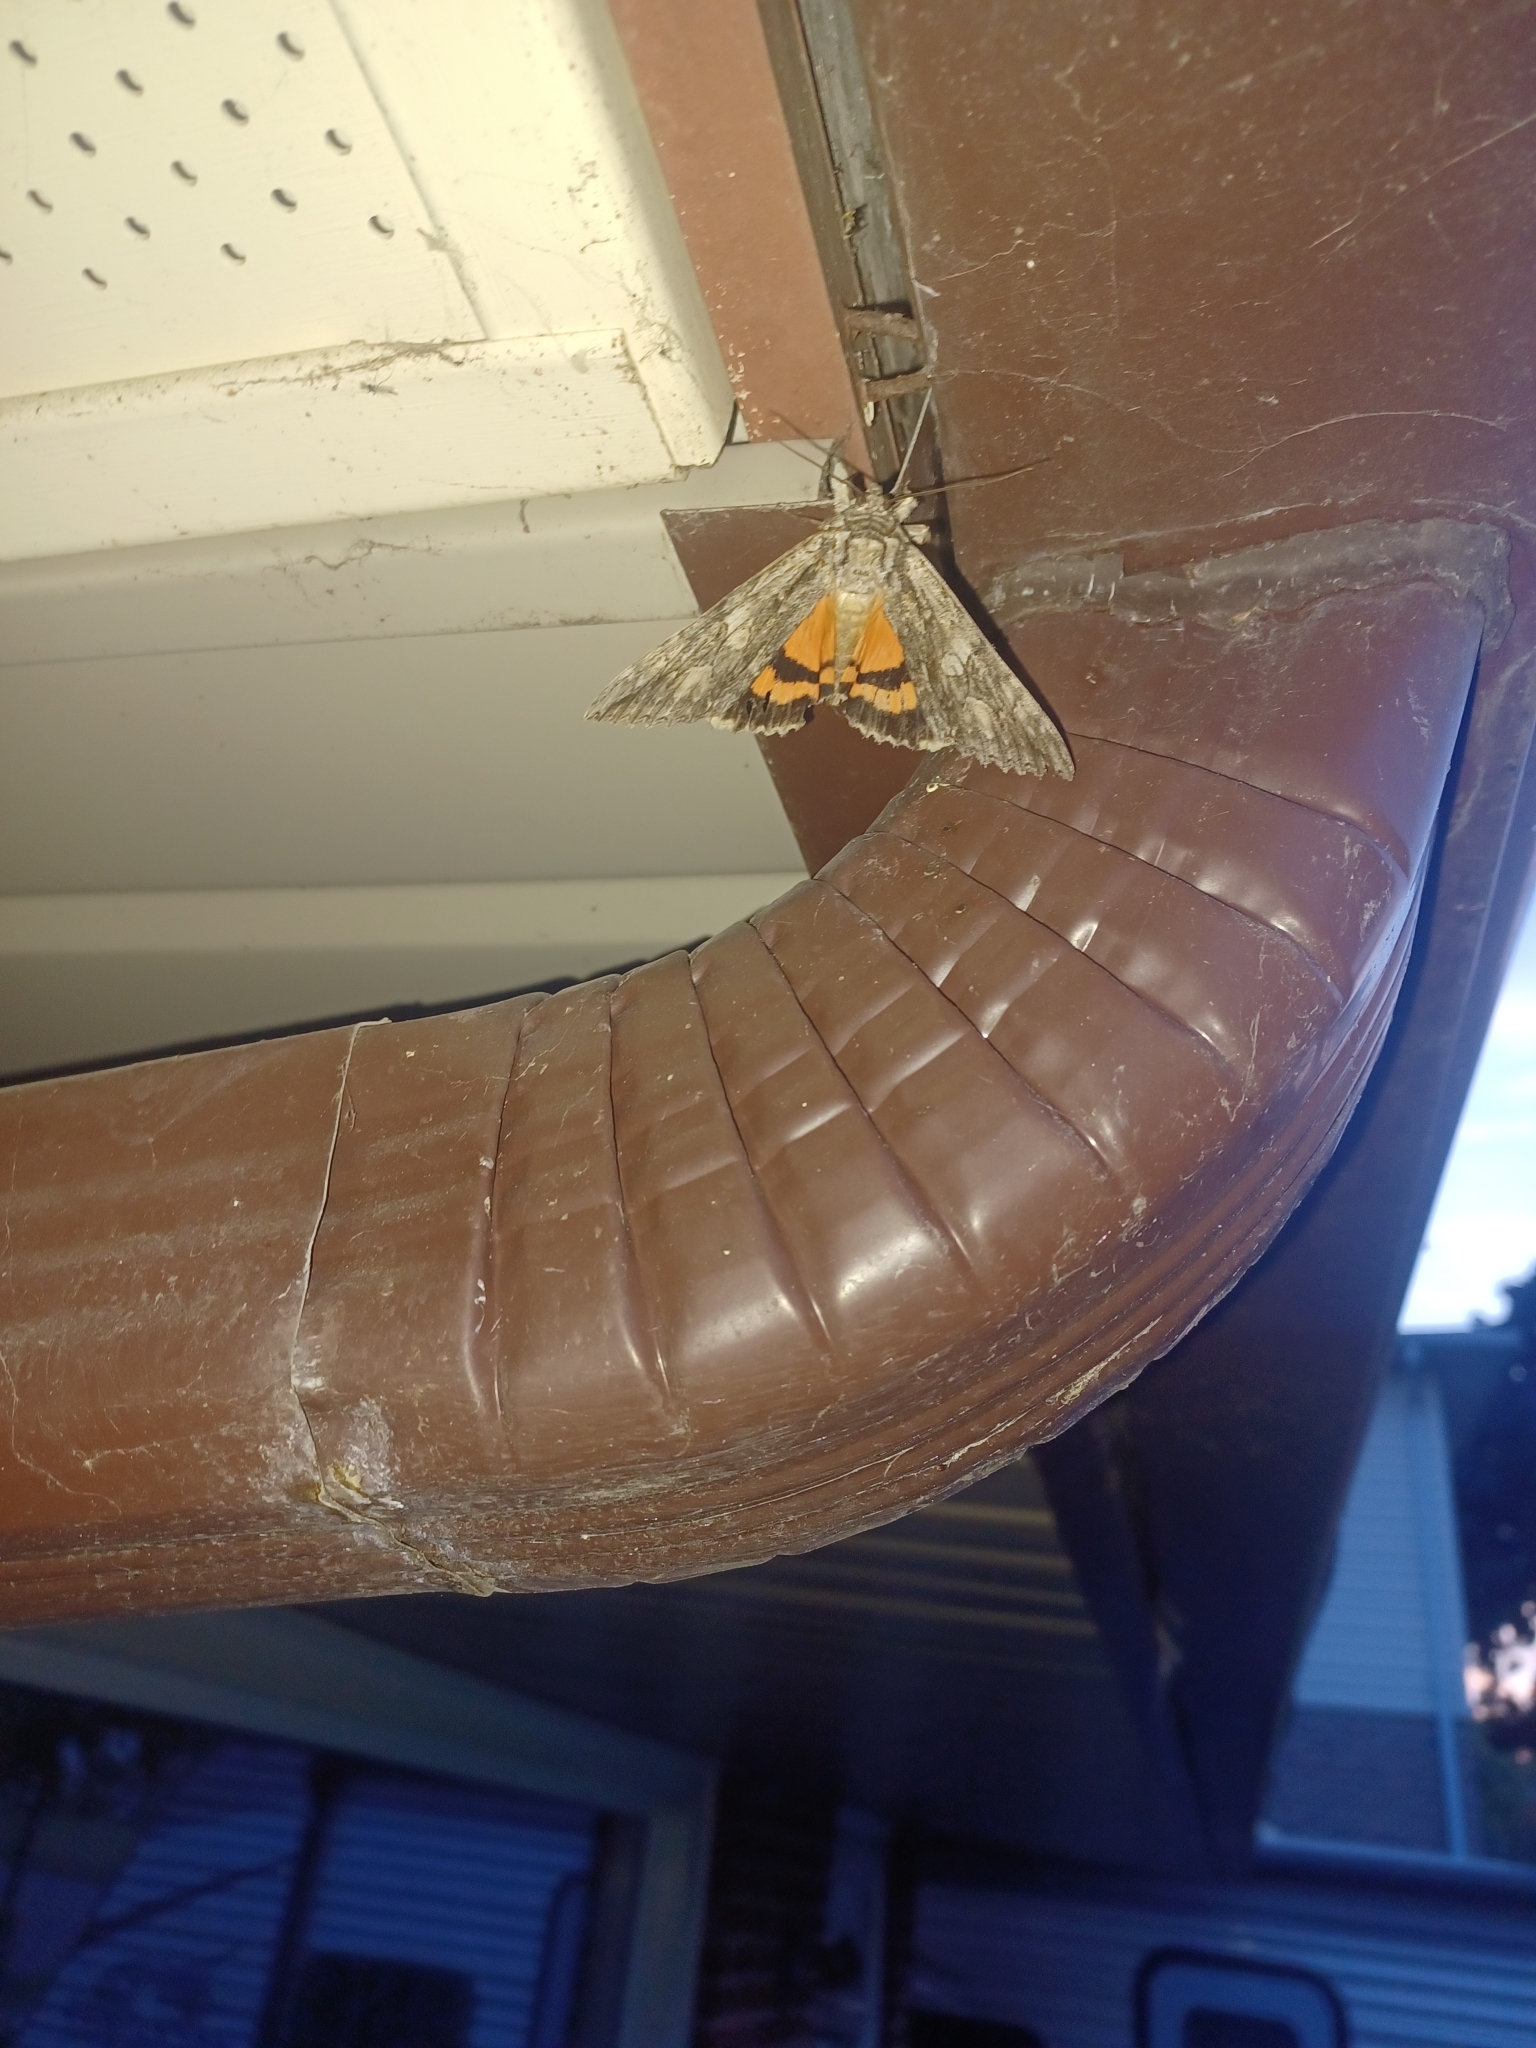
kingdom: Animalia
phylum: Arthropoda
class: Insecta
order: Lepidoptera
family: Erebidae
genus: Catocala
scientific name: Catocala parta
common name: Mother underwing
